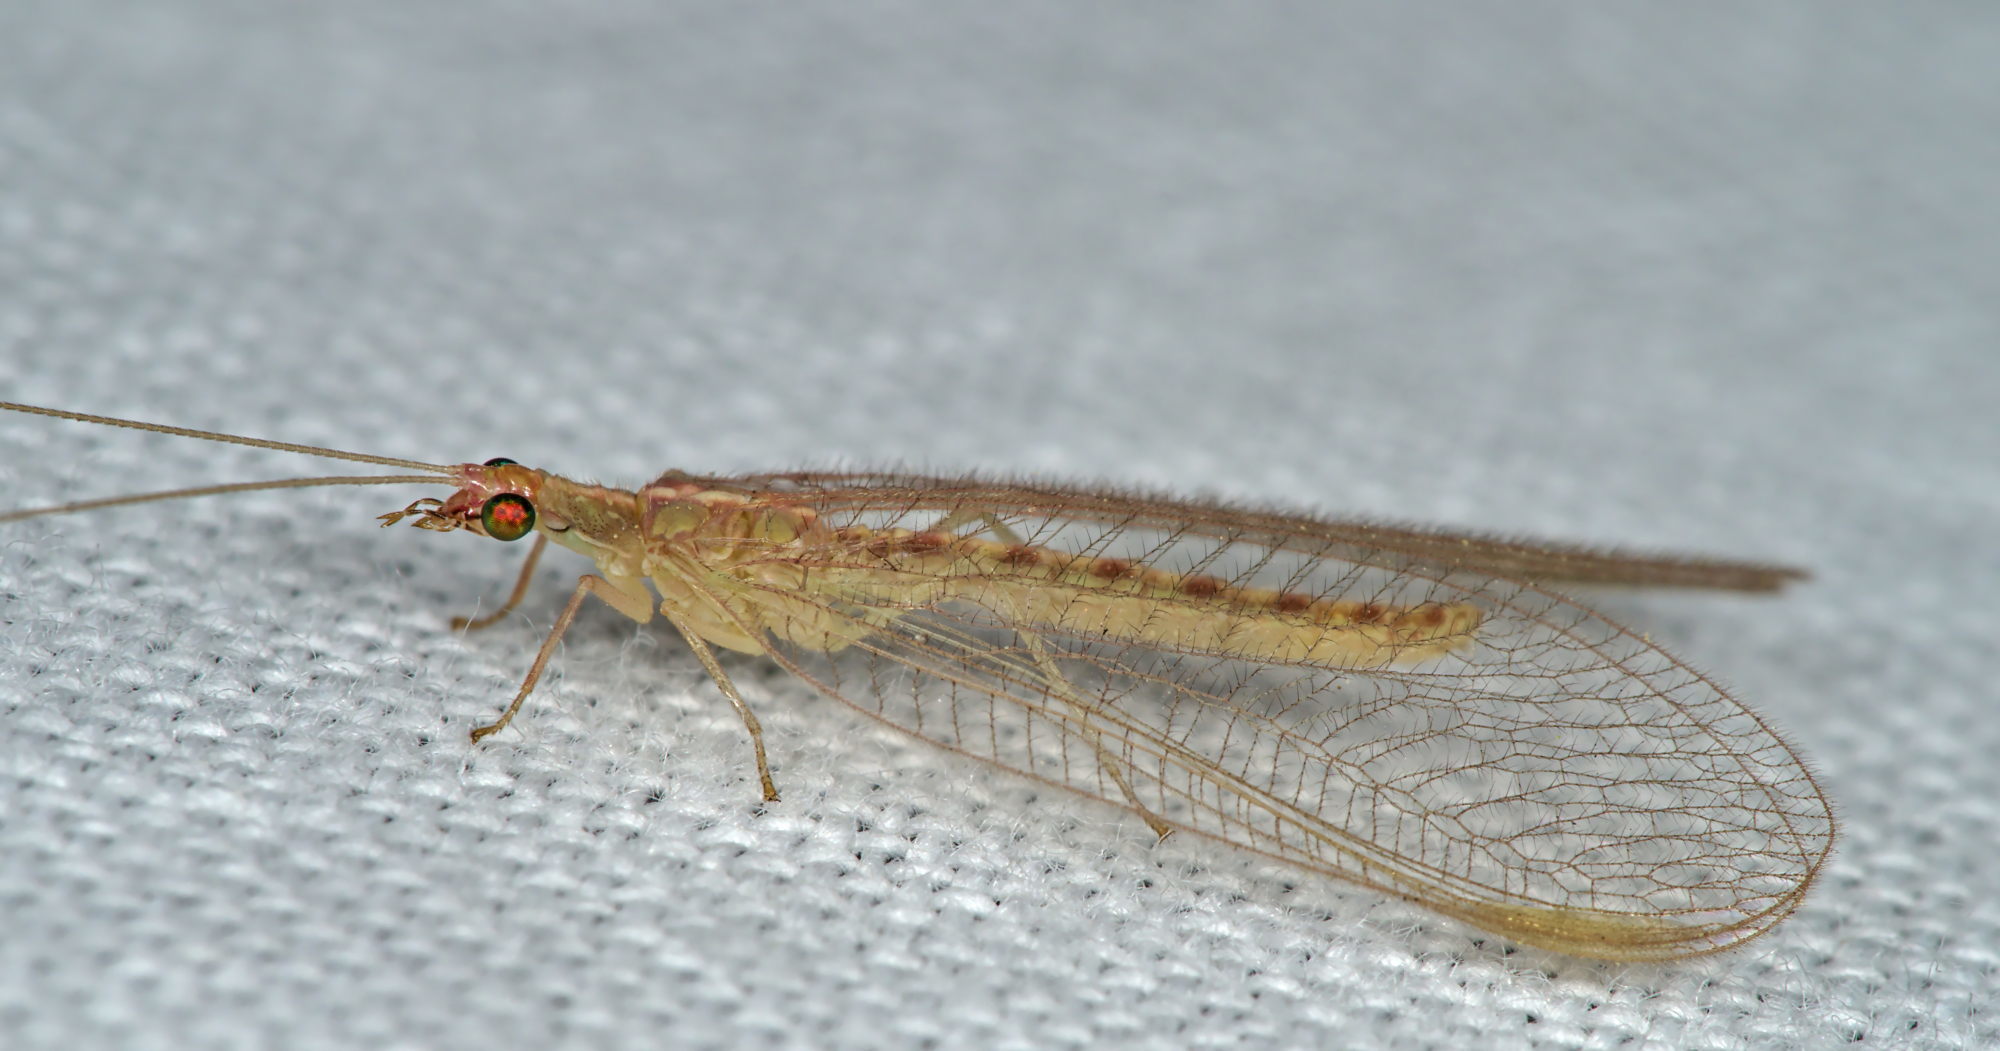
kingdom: Animalia
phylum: Arthropoda
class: Insecta
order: Neuroptera
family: Chrysopidae
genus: Chrysoperla
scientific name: Chrysoperla
